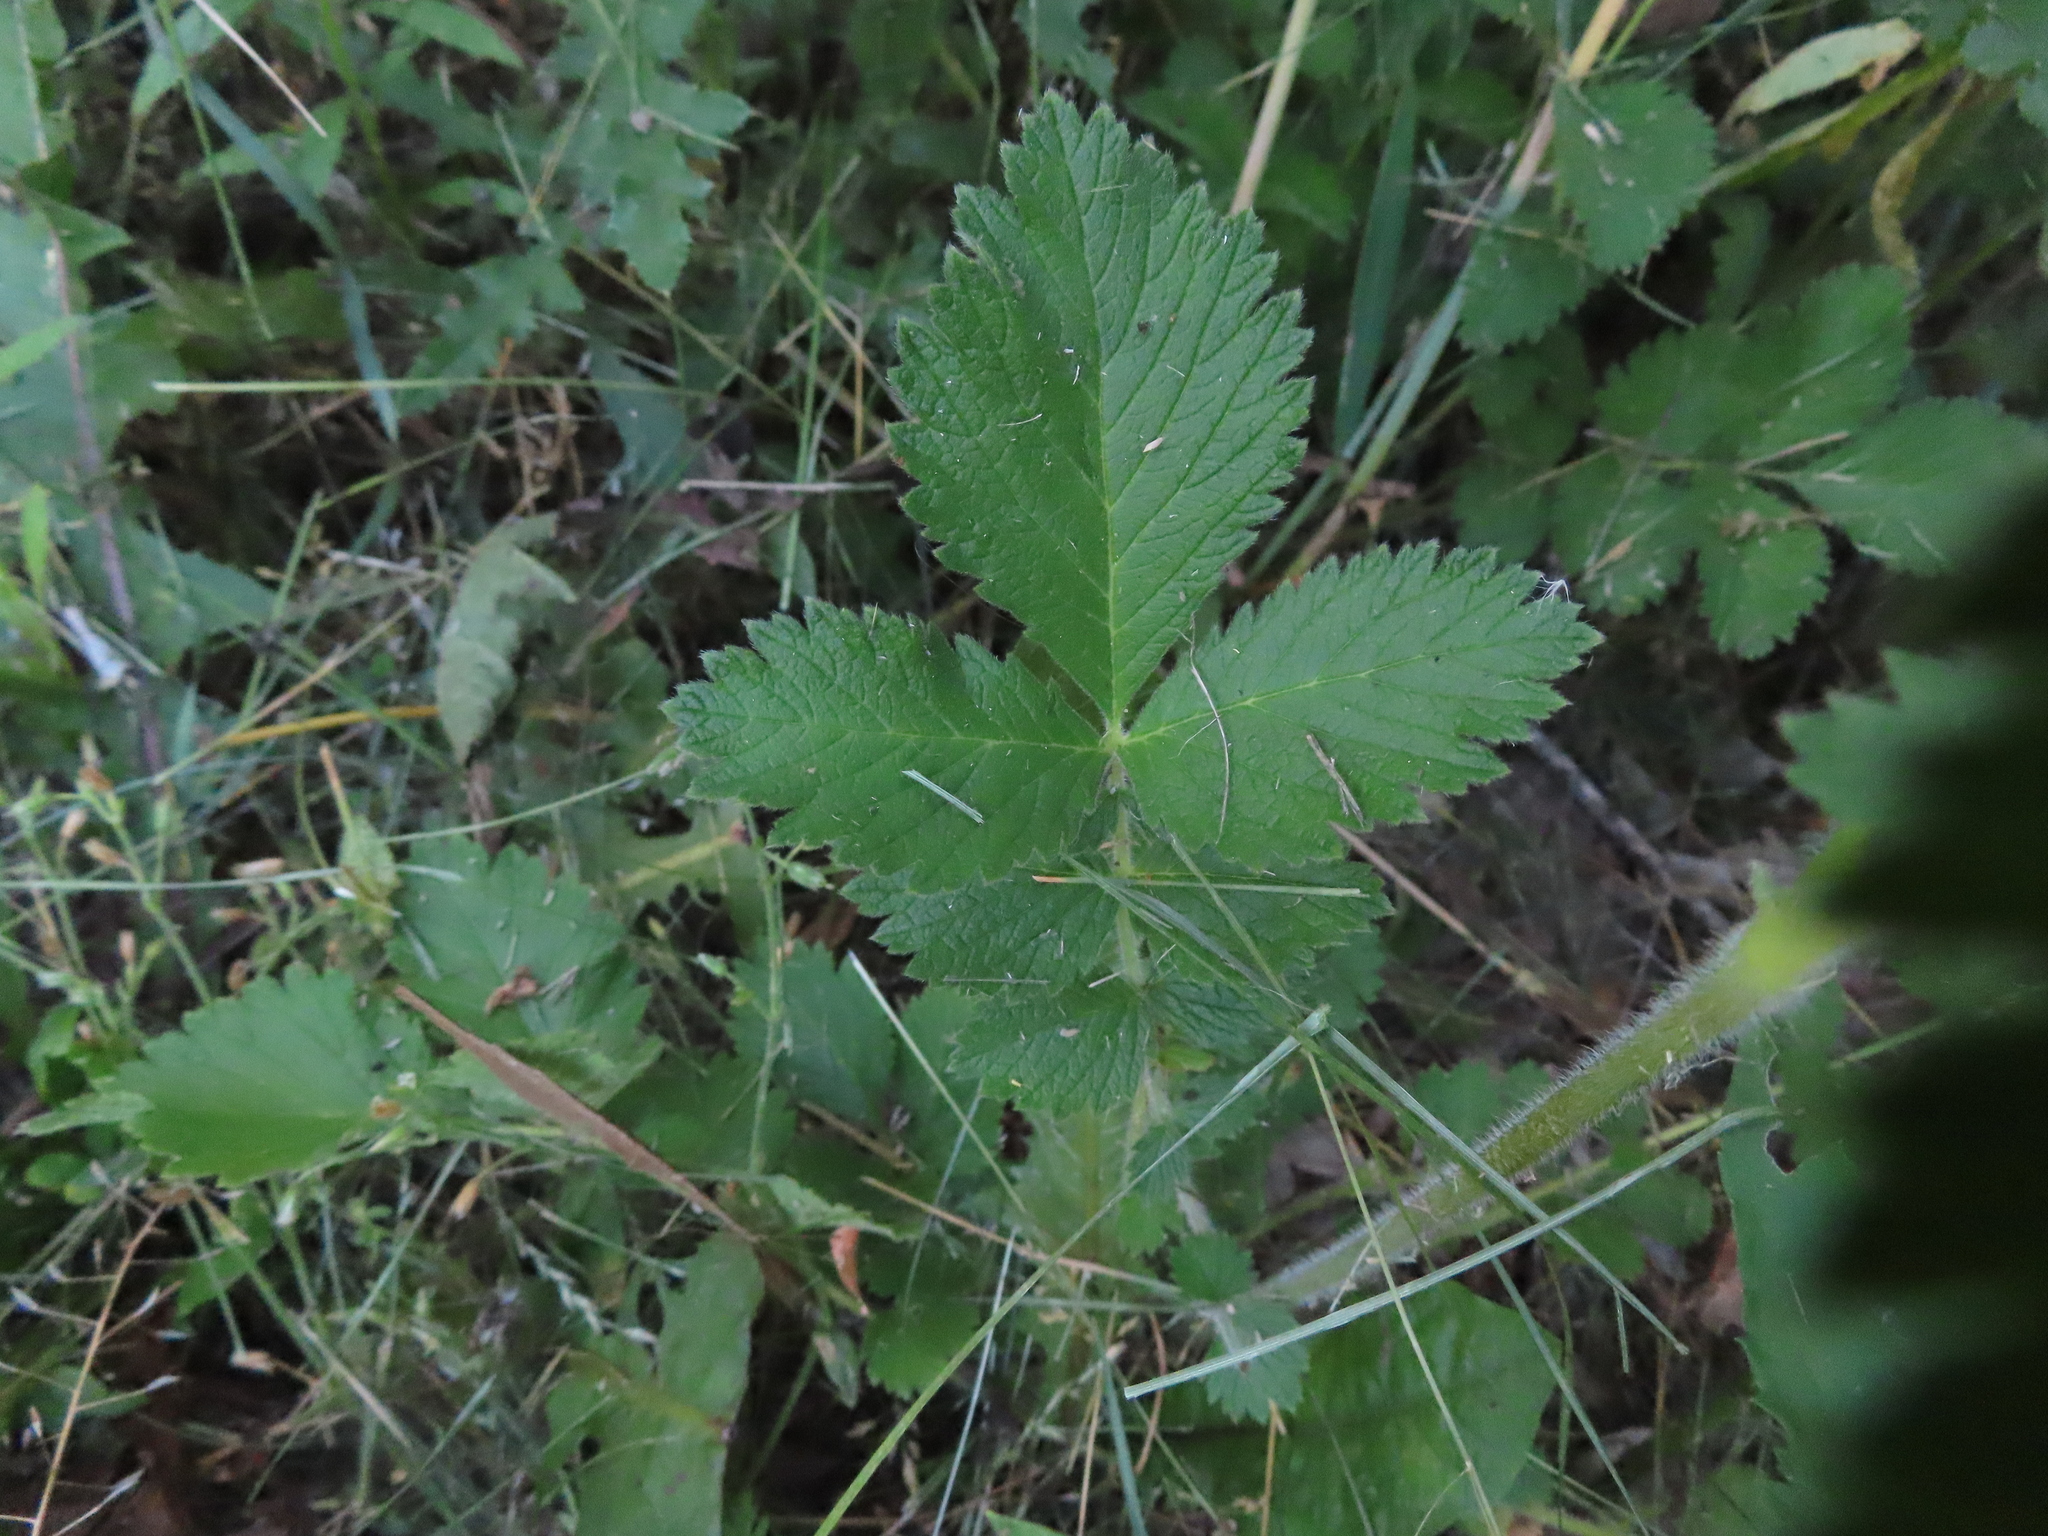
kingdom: Plantae
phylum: Tracheophyta
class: Magnoliopsida
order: Rosales
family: Rosaceae
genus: Drymocallis
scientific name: Drymocallis arguta
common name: Tall cinquefoil
